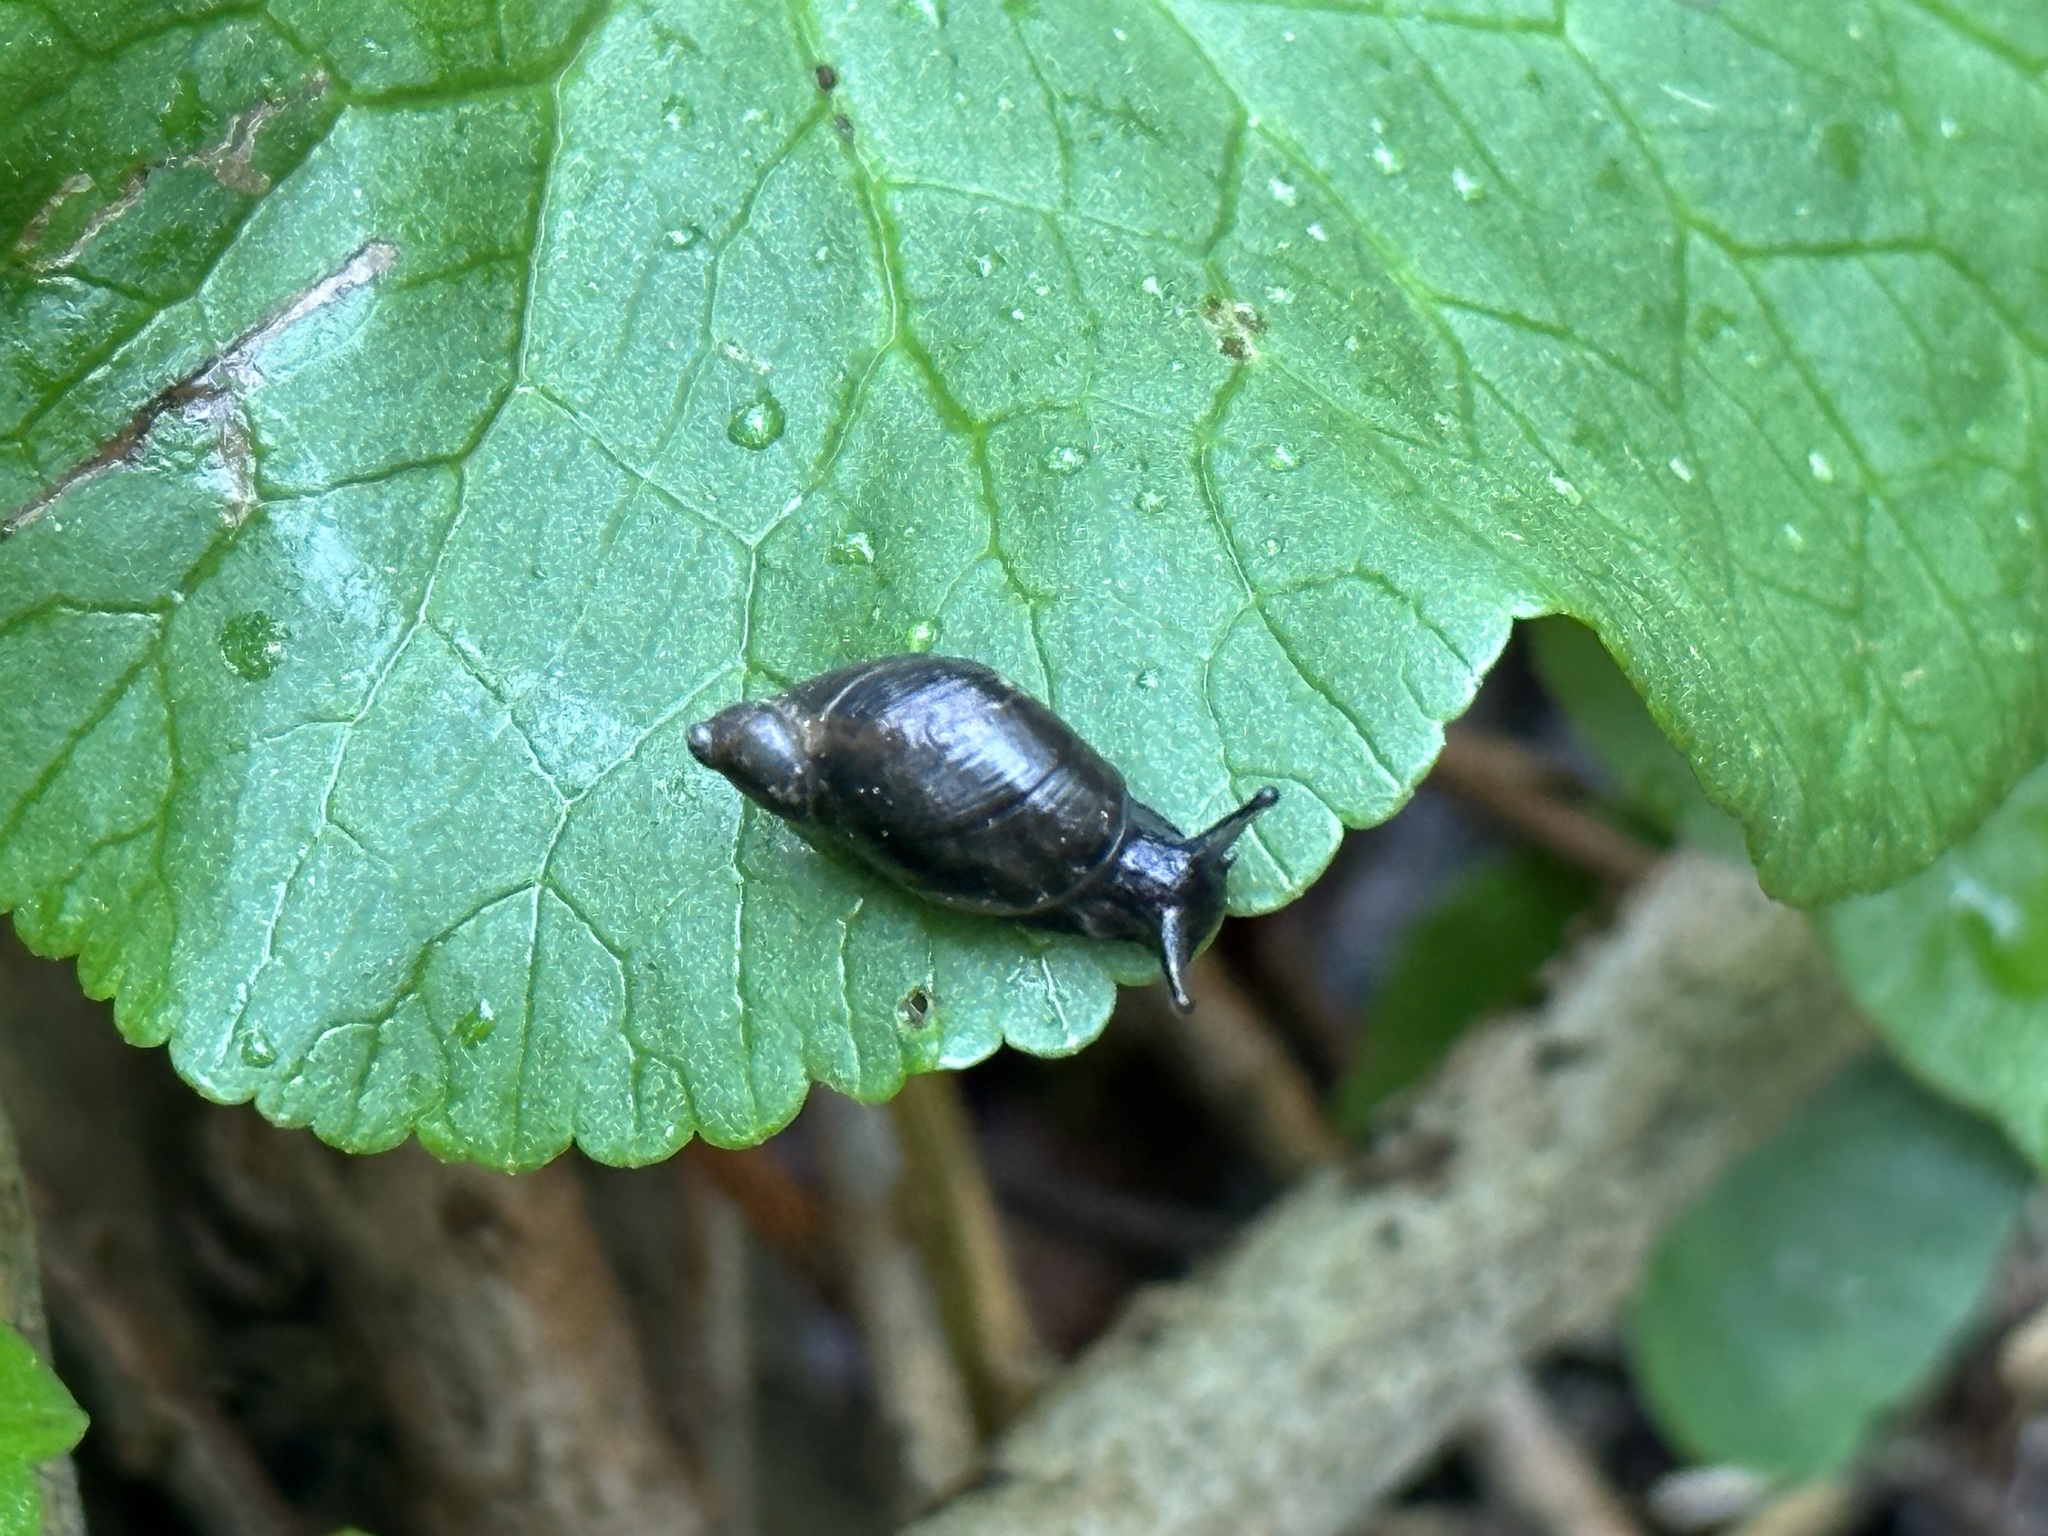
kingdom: Animalia
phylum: Mollusca
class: Gastropoda
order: Stylommatophora
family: Succineidae
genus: Succinea
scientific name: Succinea putris
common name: European ambersnail
